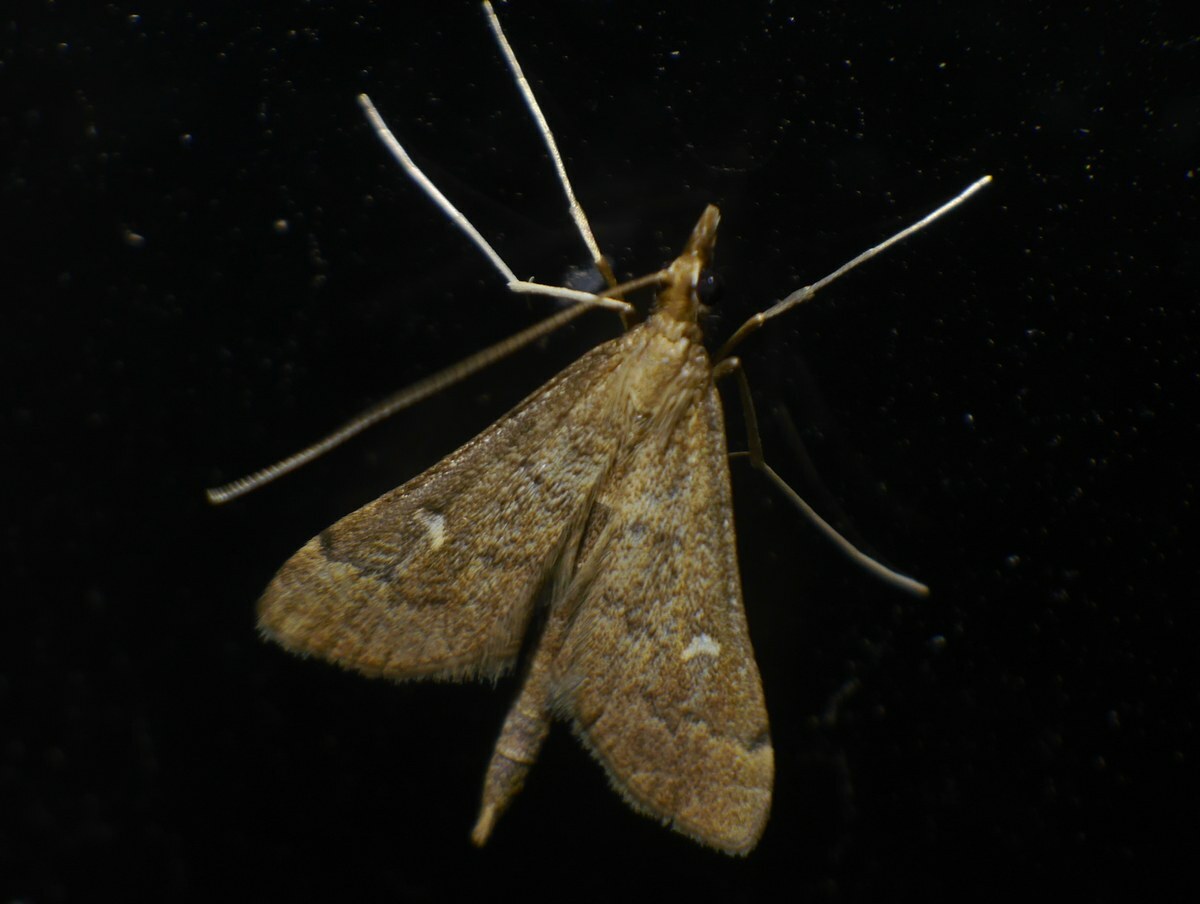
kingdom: Animalia
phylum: Arthropoda
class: Insecta
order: Lepidoptera
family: Crambidae
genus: Stenia
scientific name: Stenia Dolicharthria punctalis
